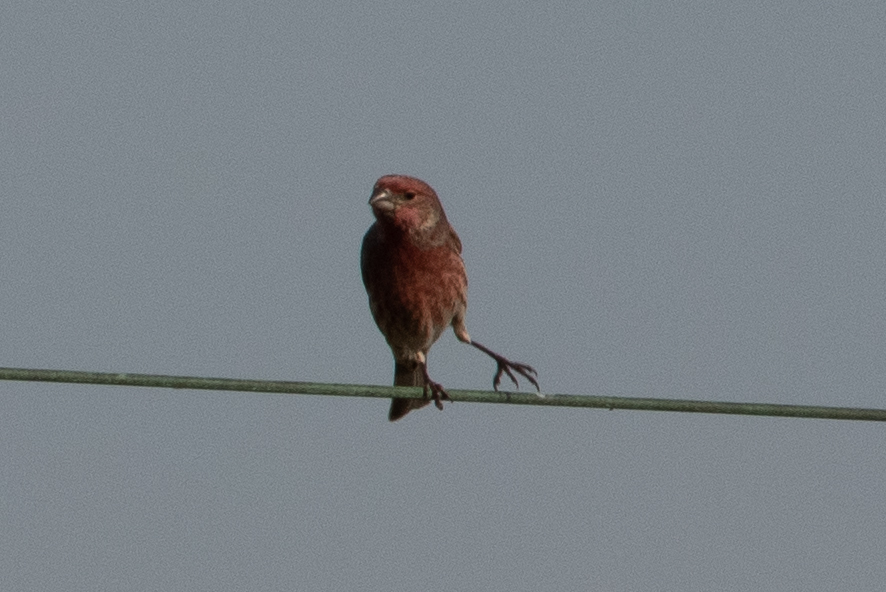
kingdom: Animalia
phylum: Chordata
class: Aves
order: Passeriformes
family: Fringillidae
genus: Haemorhous
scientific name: Haemorhous mexicanus
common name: House finch
